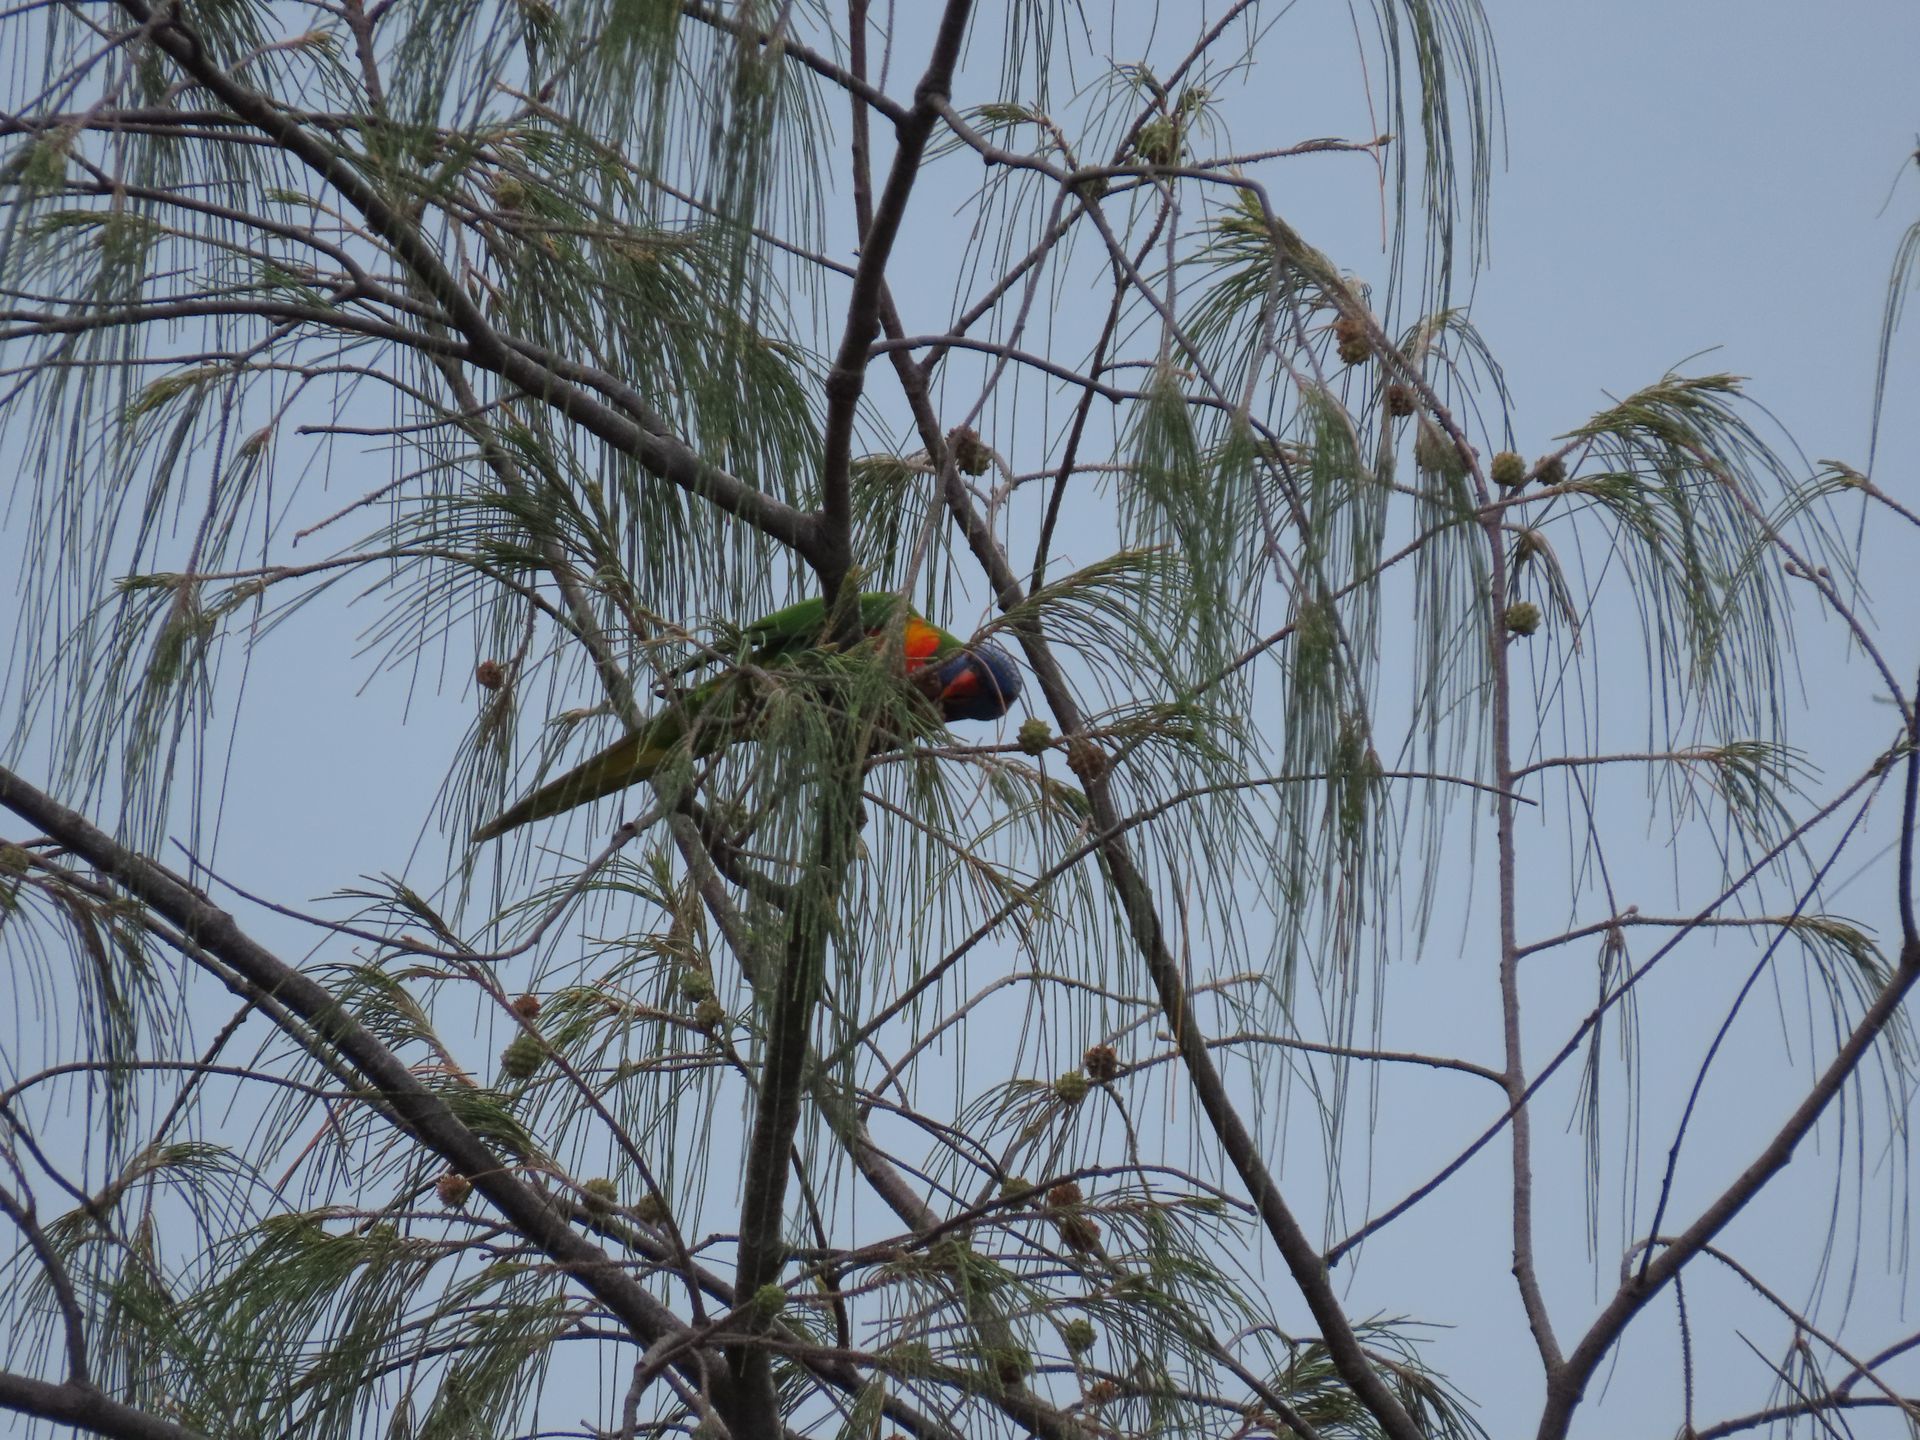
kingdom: Animalia
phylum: Chordata
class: Aves
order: Psittaciformes
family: Psittacidae
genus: Trichoglossus
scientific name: Trichoglossus haematodus
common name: Coconut lorikeet
